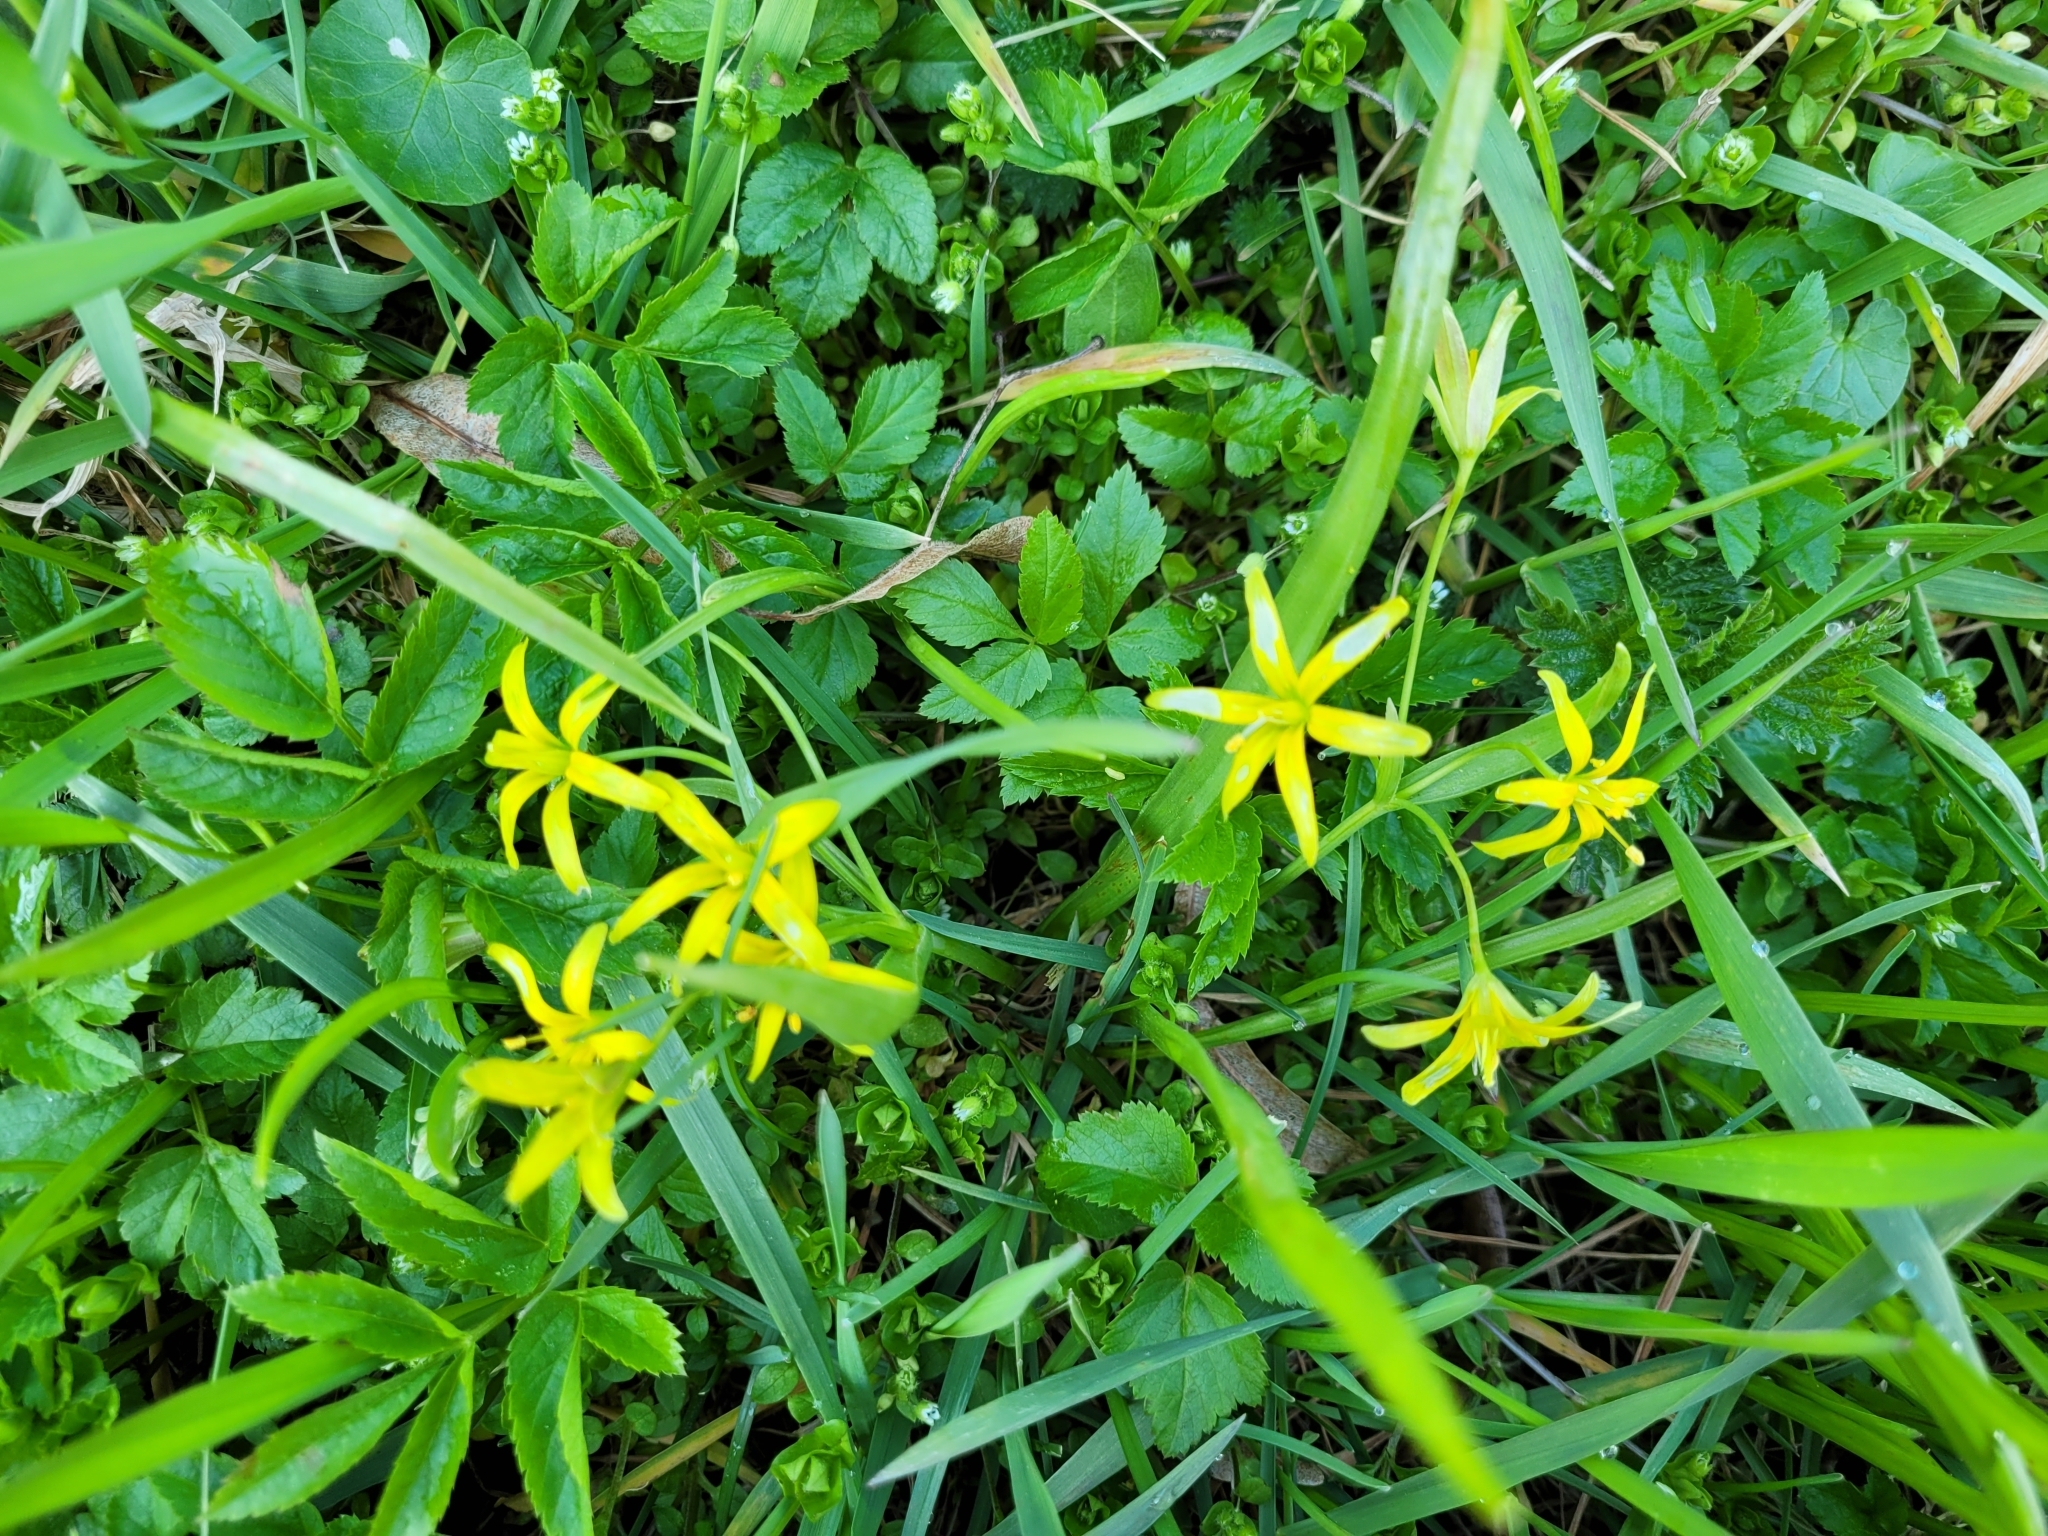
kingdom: Plantae
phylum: Tracheophyta
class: Liliopsida
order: Liliales
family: Liliaceae
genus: Gagea
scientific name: Gagea lutea
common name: Yellow star-of-bethlehem
